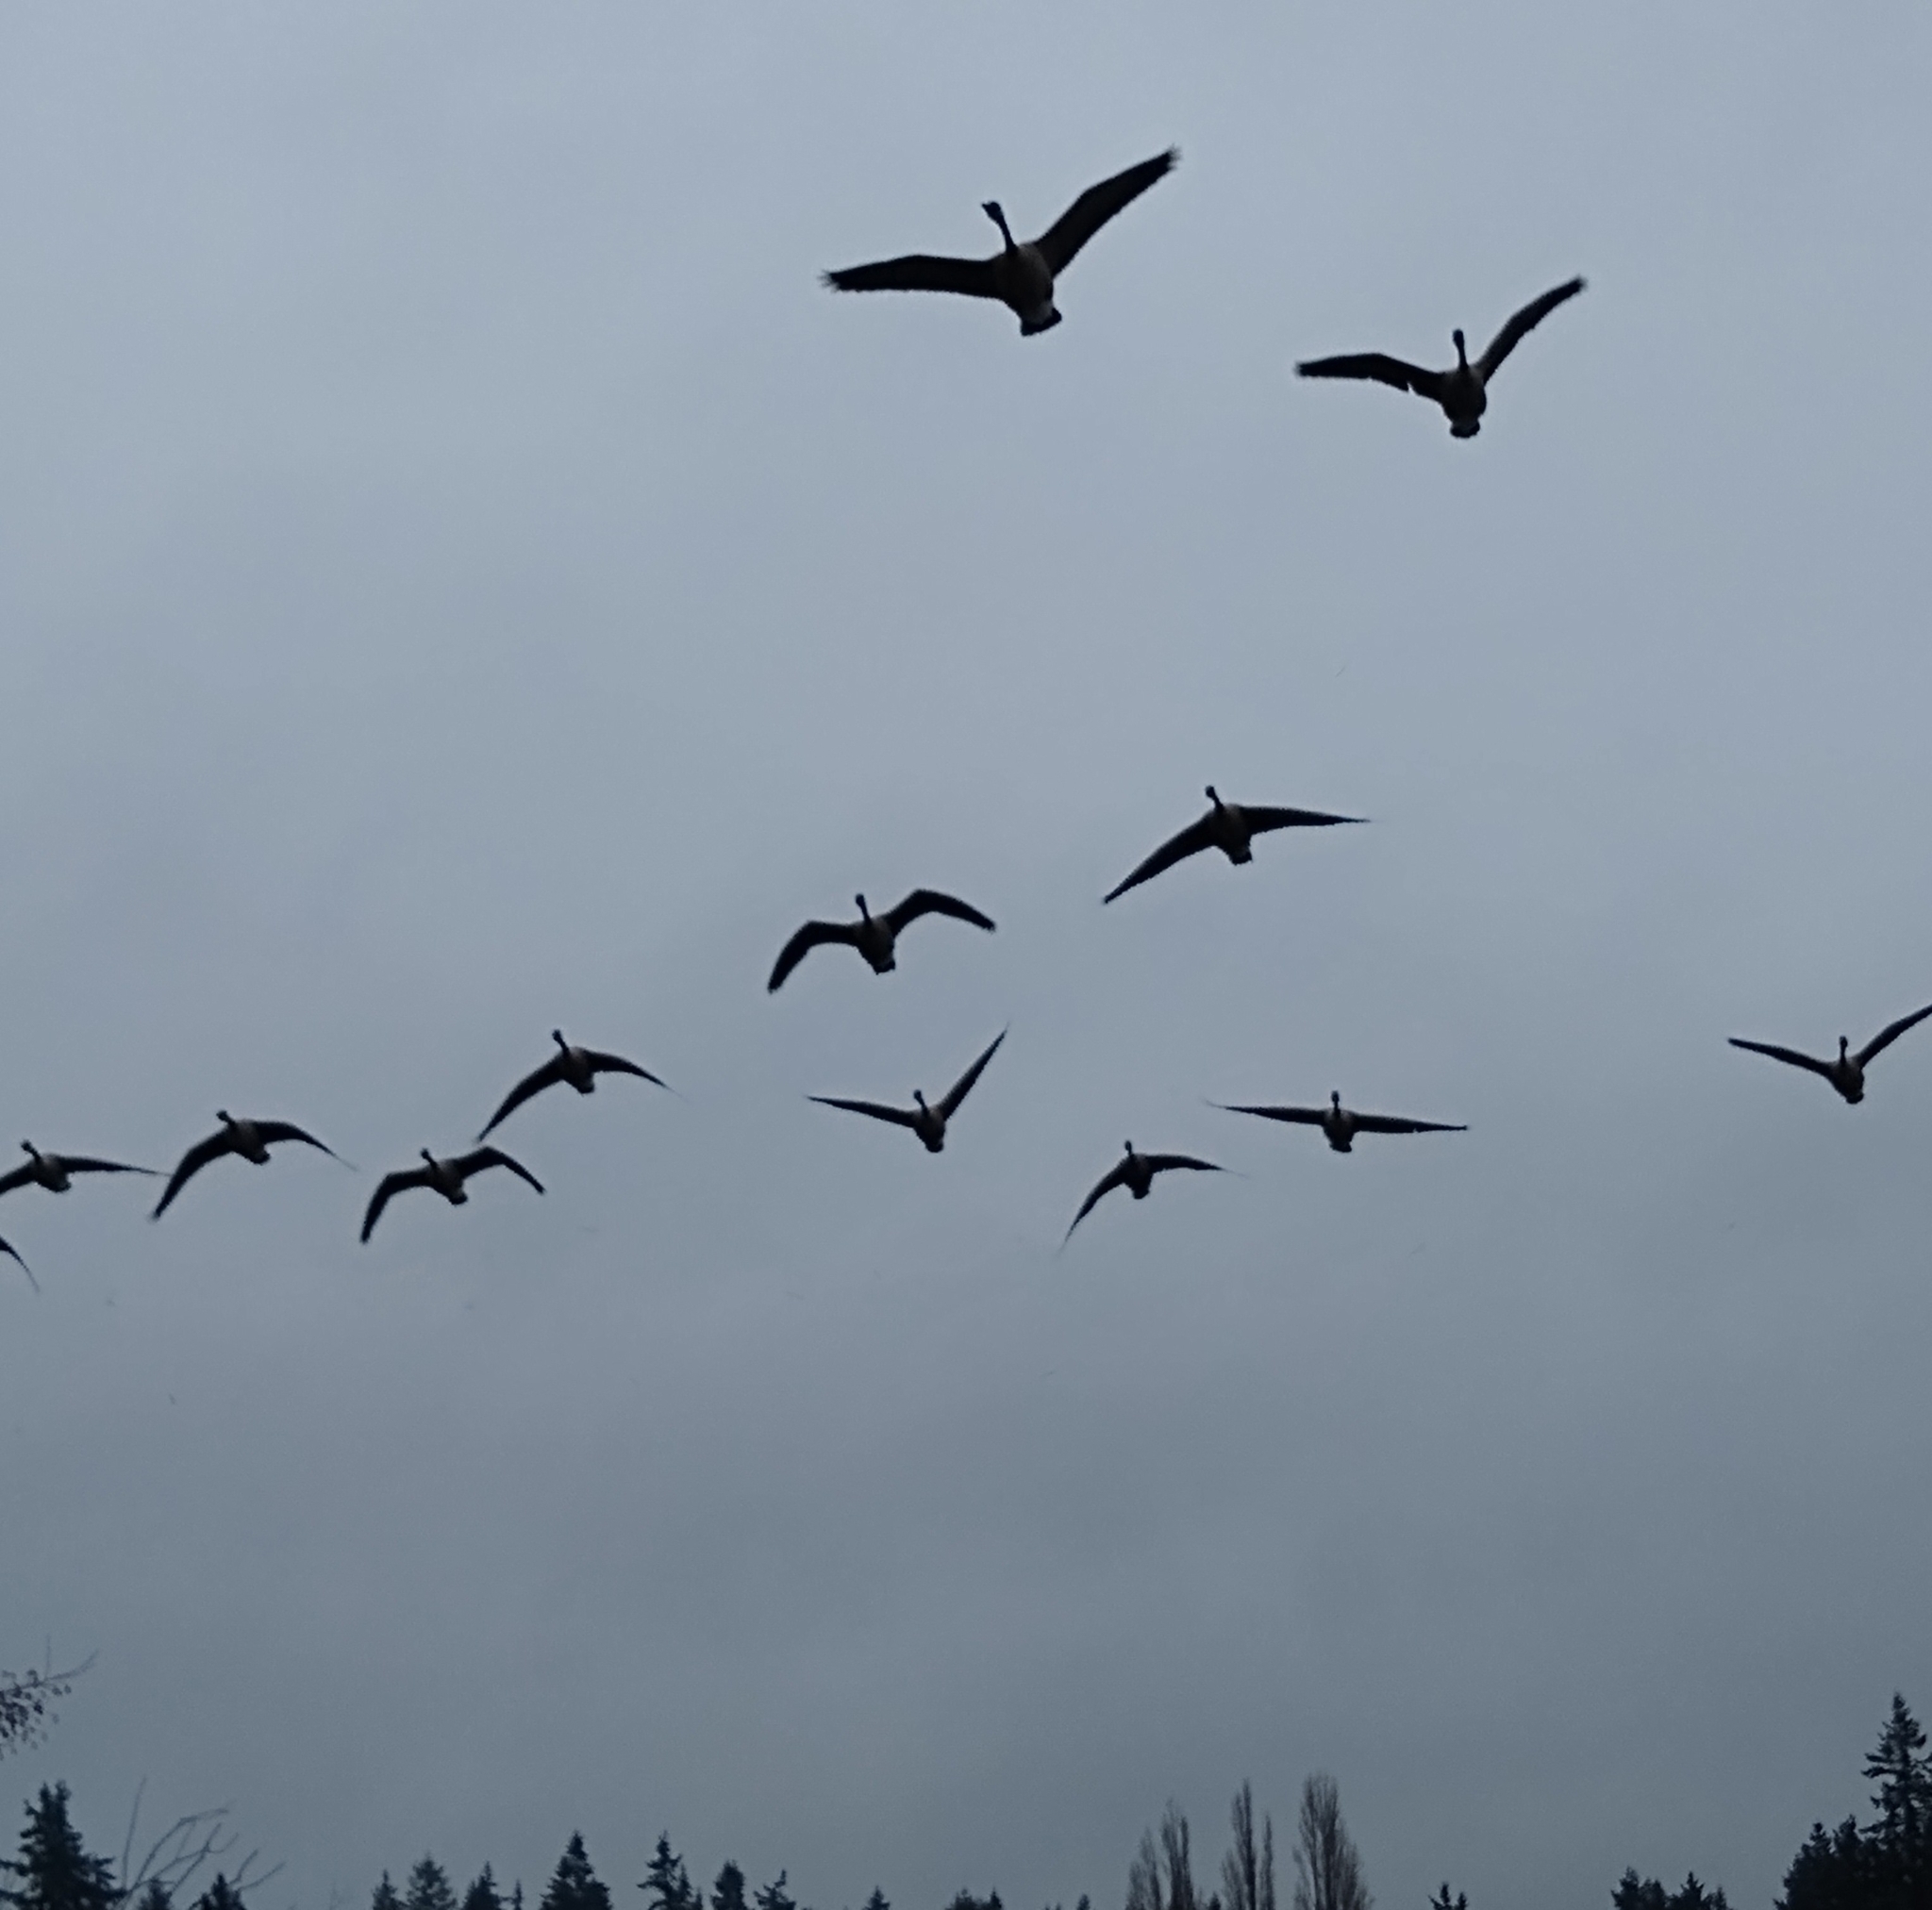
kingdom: Animalia
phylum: Chordata
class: Aves
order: Anseriformes
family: Anatidae
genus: Branta
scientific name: Branta canadensis
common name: Canada goose
